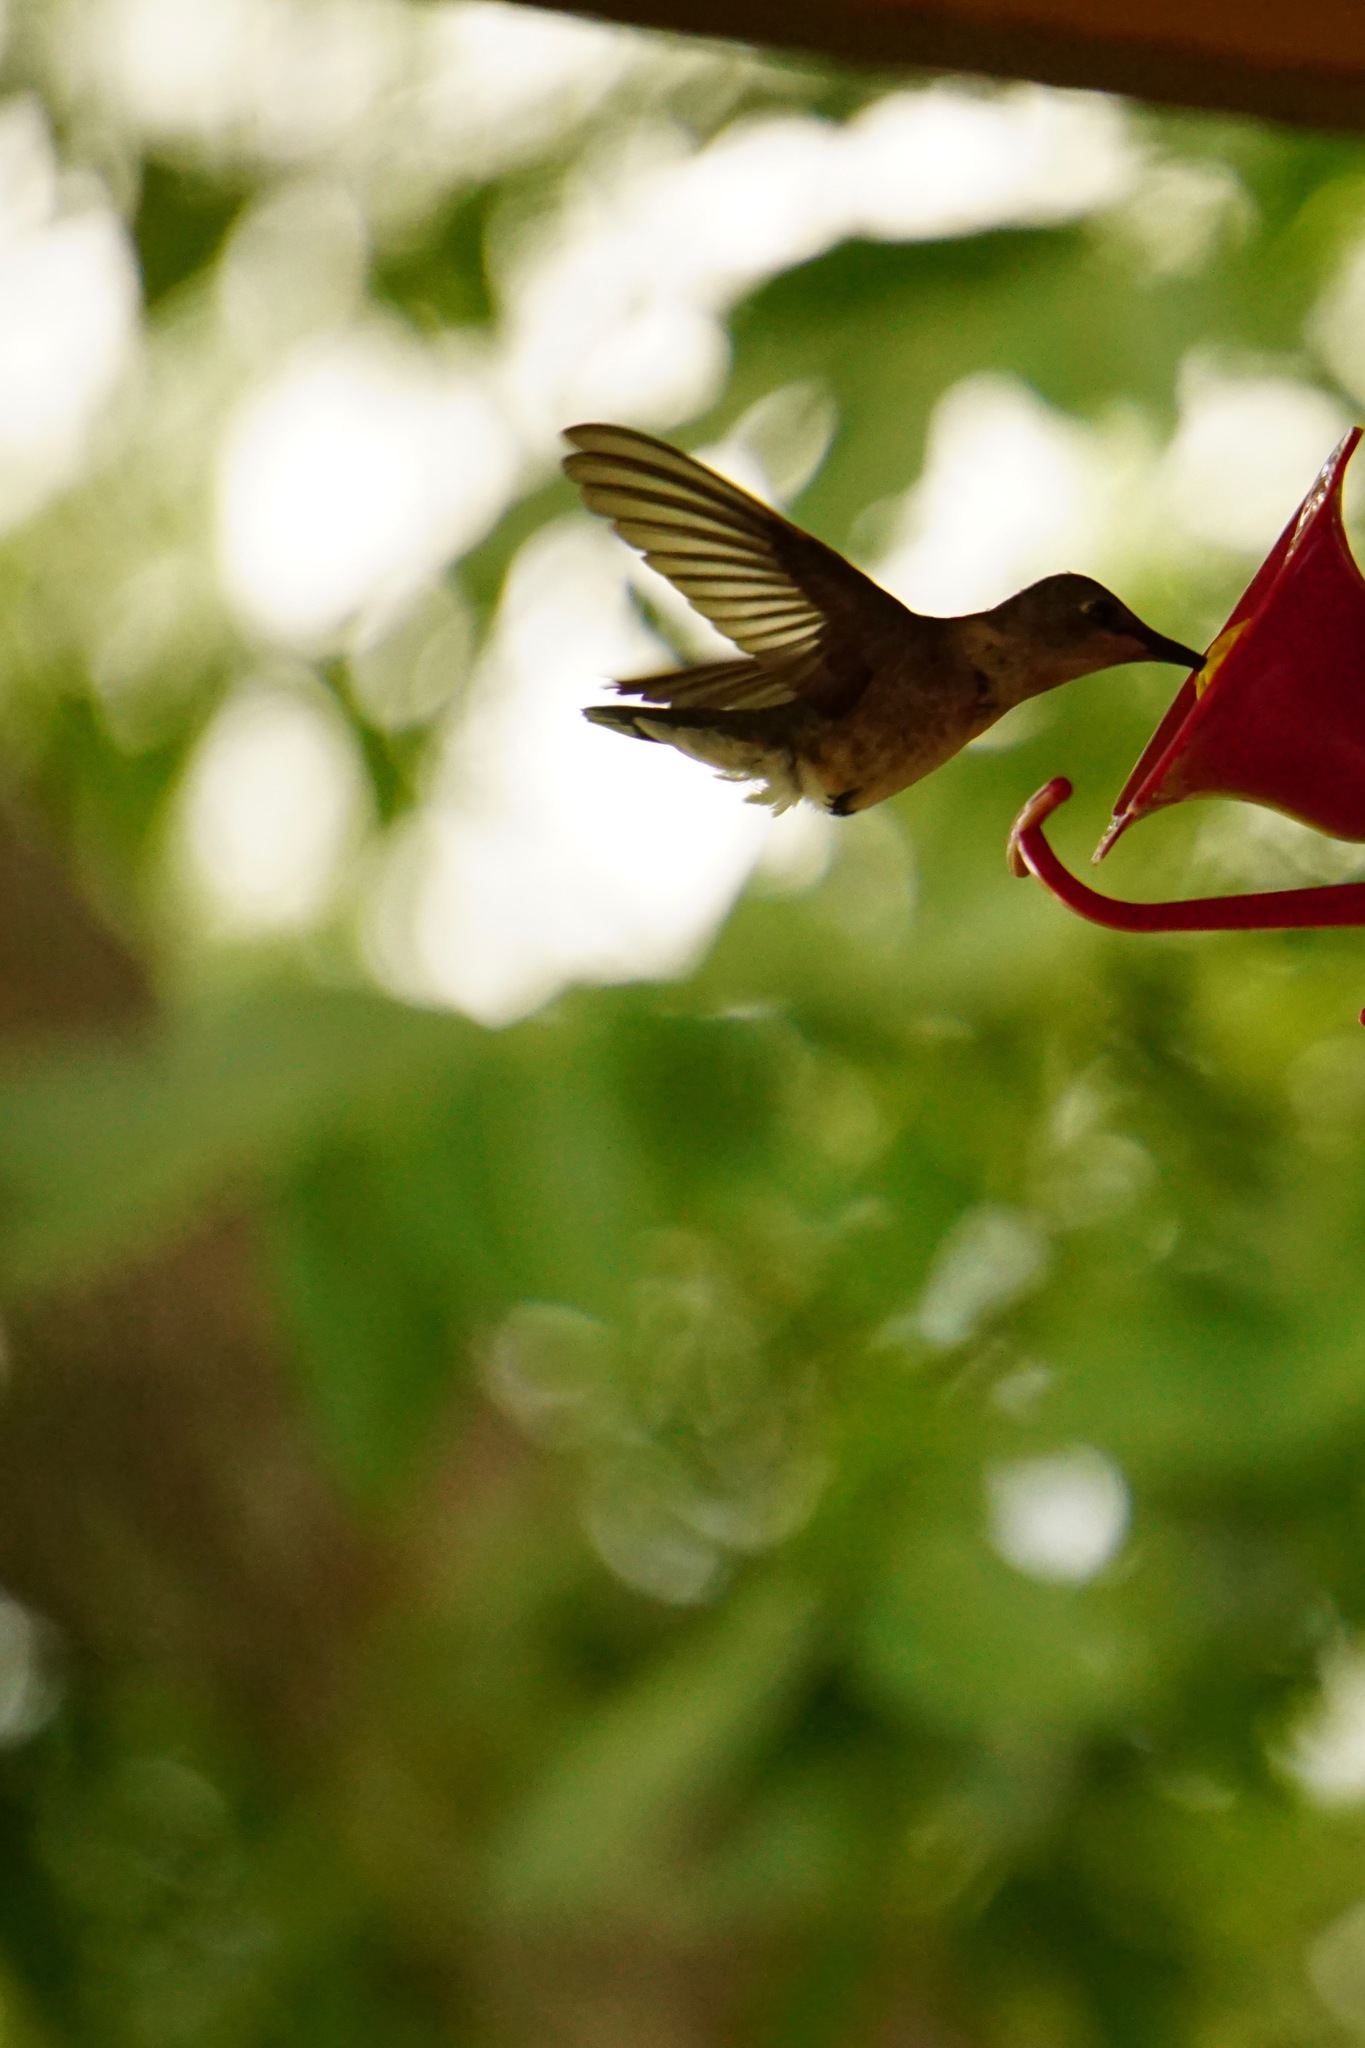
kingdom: Animalia
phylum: Chordata
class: Aves
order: Apodiformes
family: Trochilidae
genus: Archilochus
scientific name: Archilochus alexandri
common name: Black-chinned hummingbird
